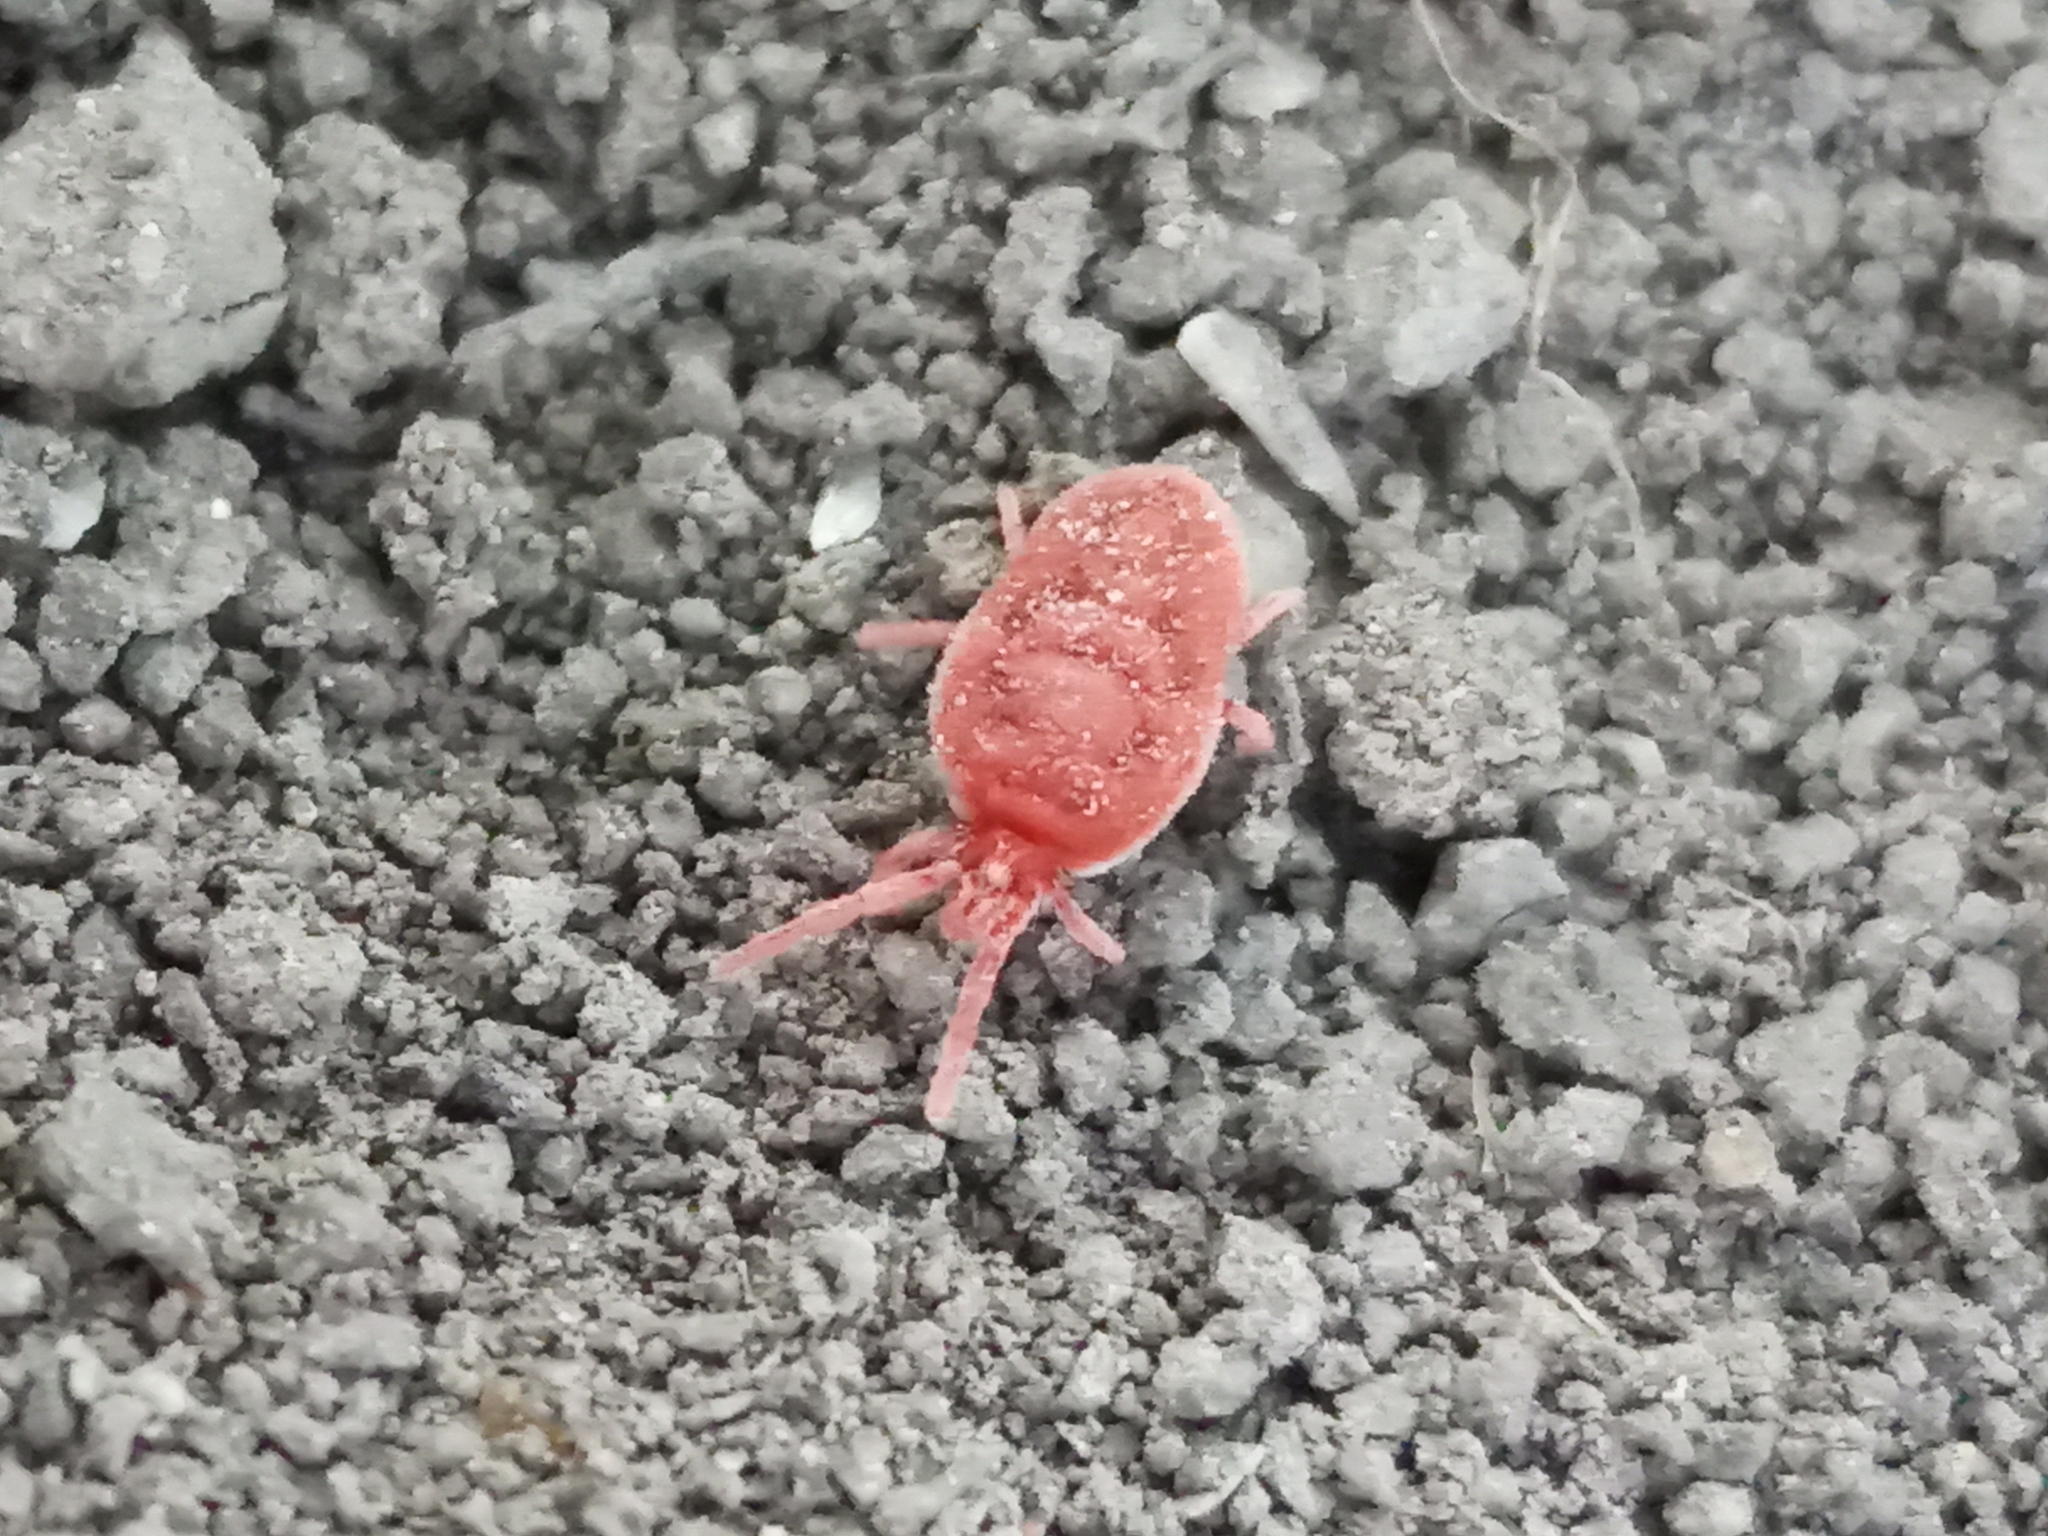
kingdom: Animalia
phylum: Arthropoda
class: Arachnida
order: Trombidiformes
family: Trombidiidae
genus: Allothrombium
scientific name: Allothrombium
